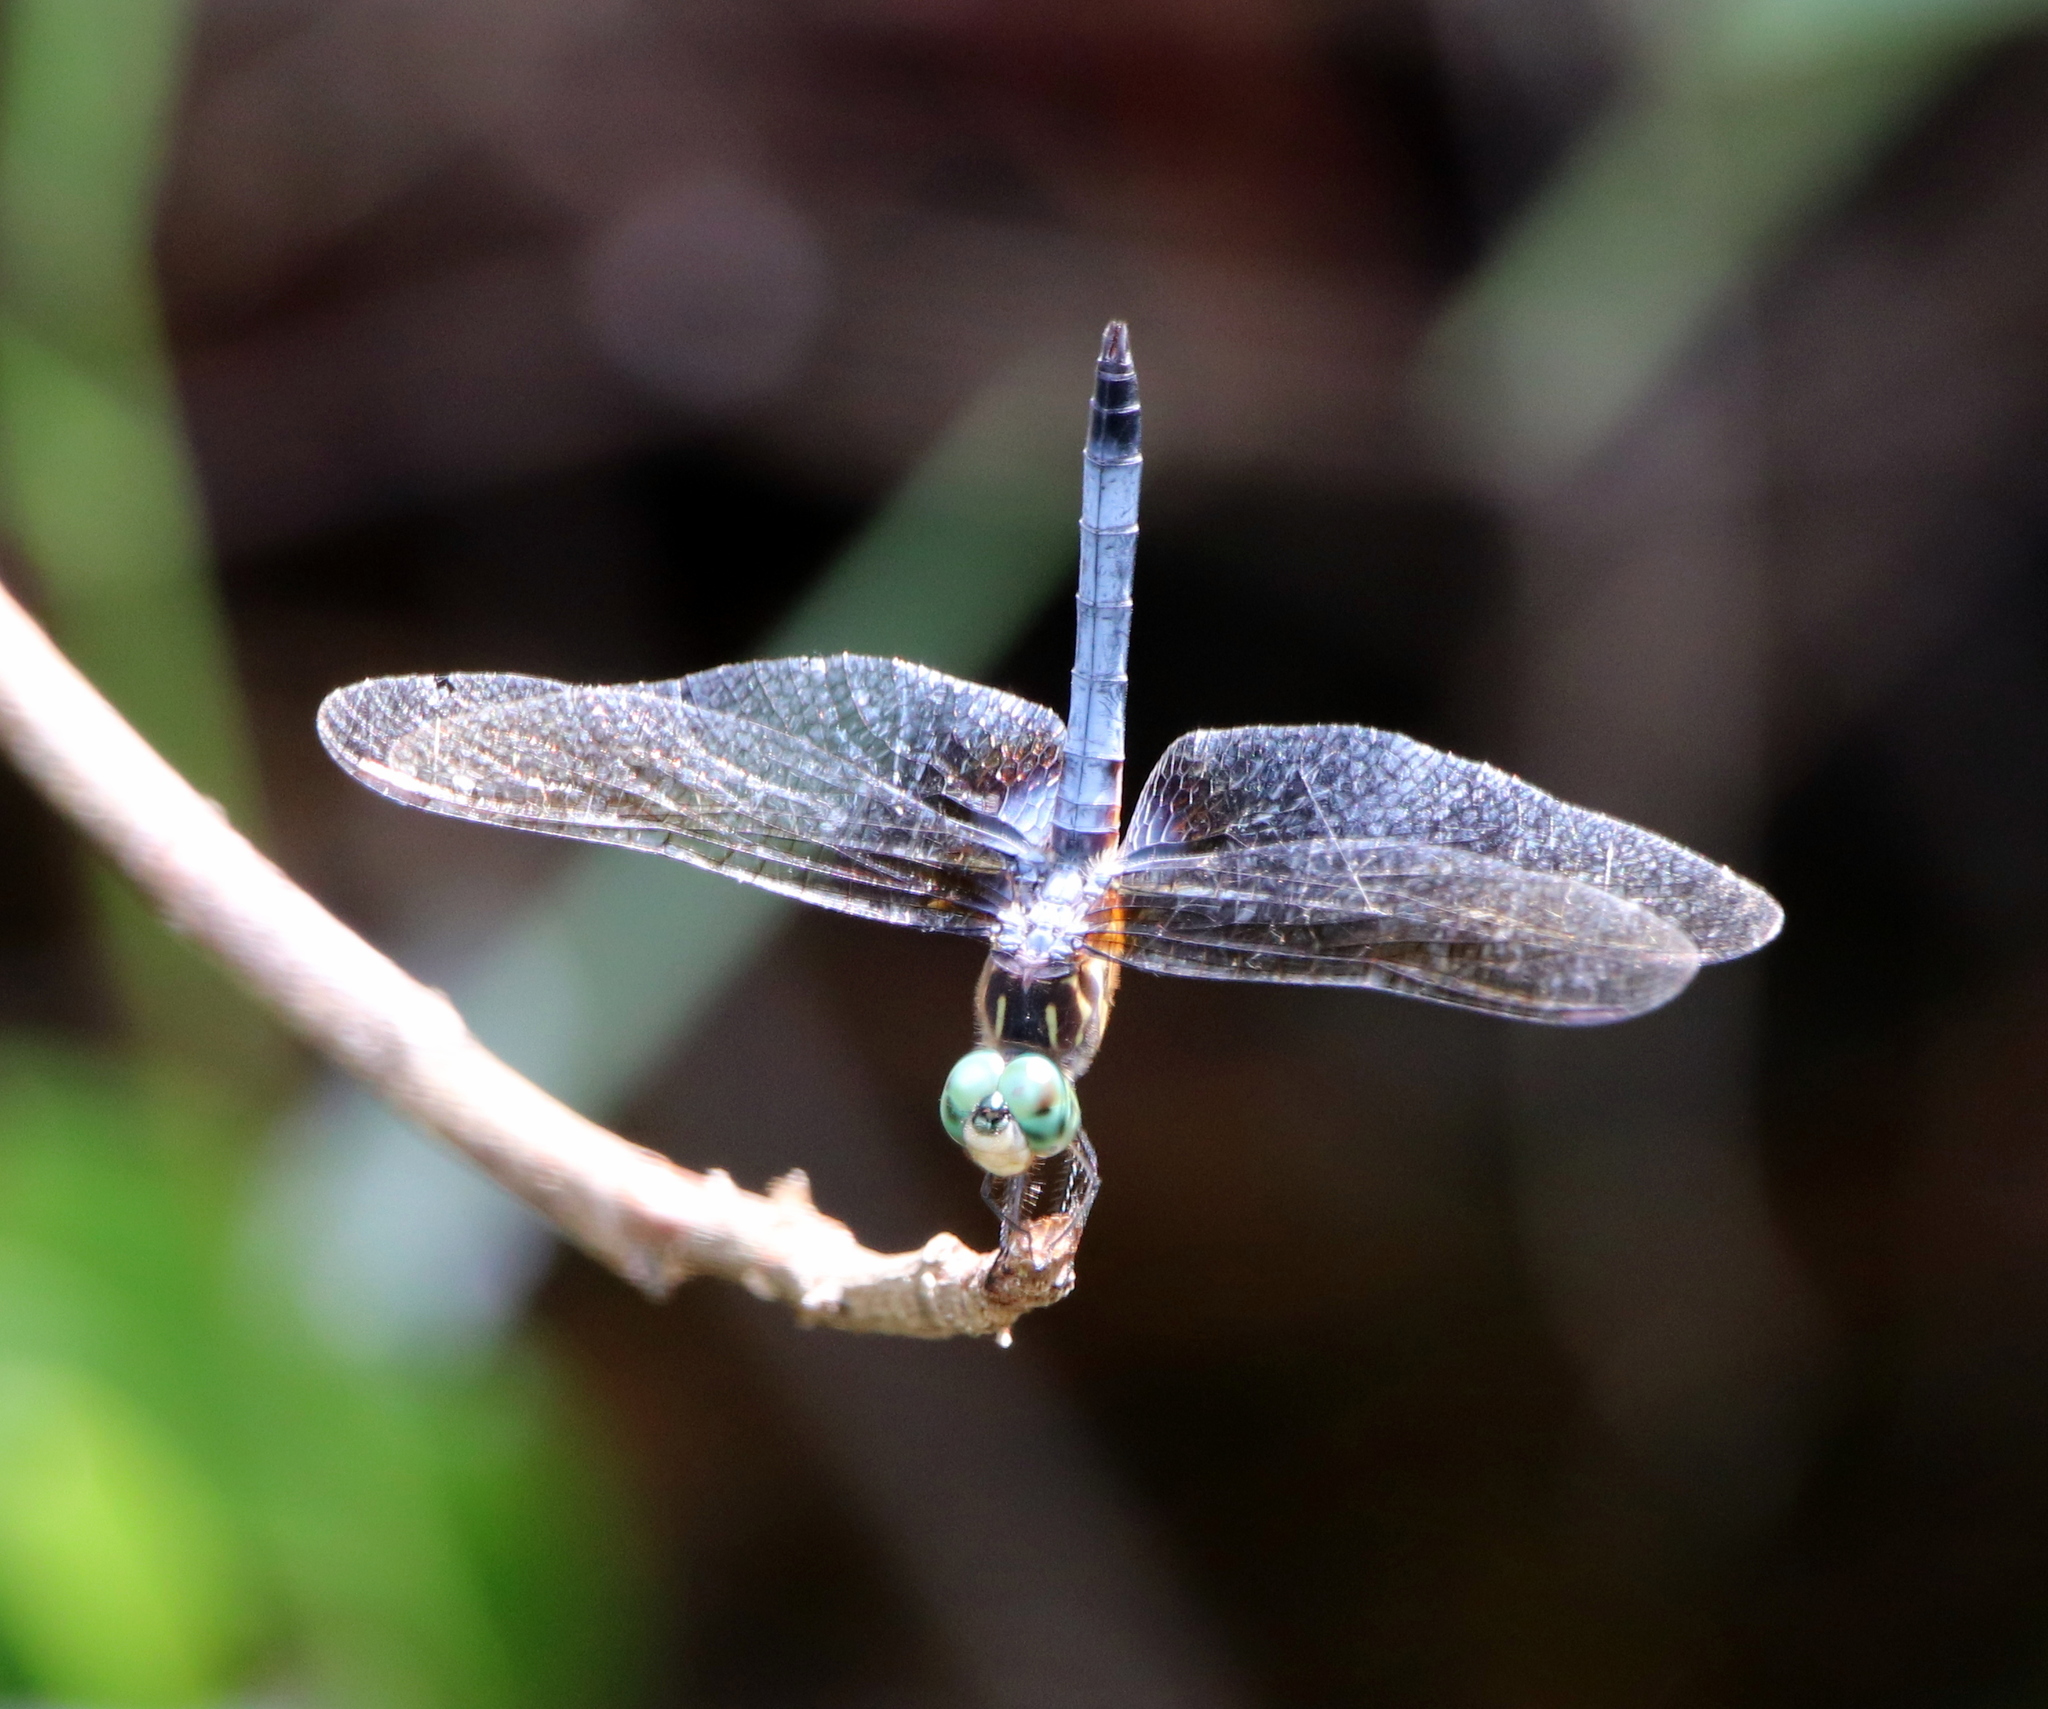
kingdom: Animalia
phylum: Arthropoda
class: Insecta
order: Odonata
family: Libellulidae
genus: Pachydiplax
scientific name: Pachydiplax longipennis
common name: Blue dasher
